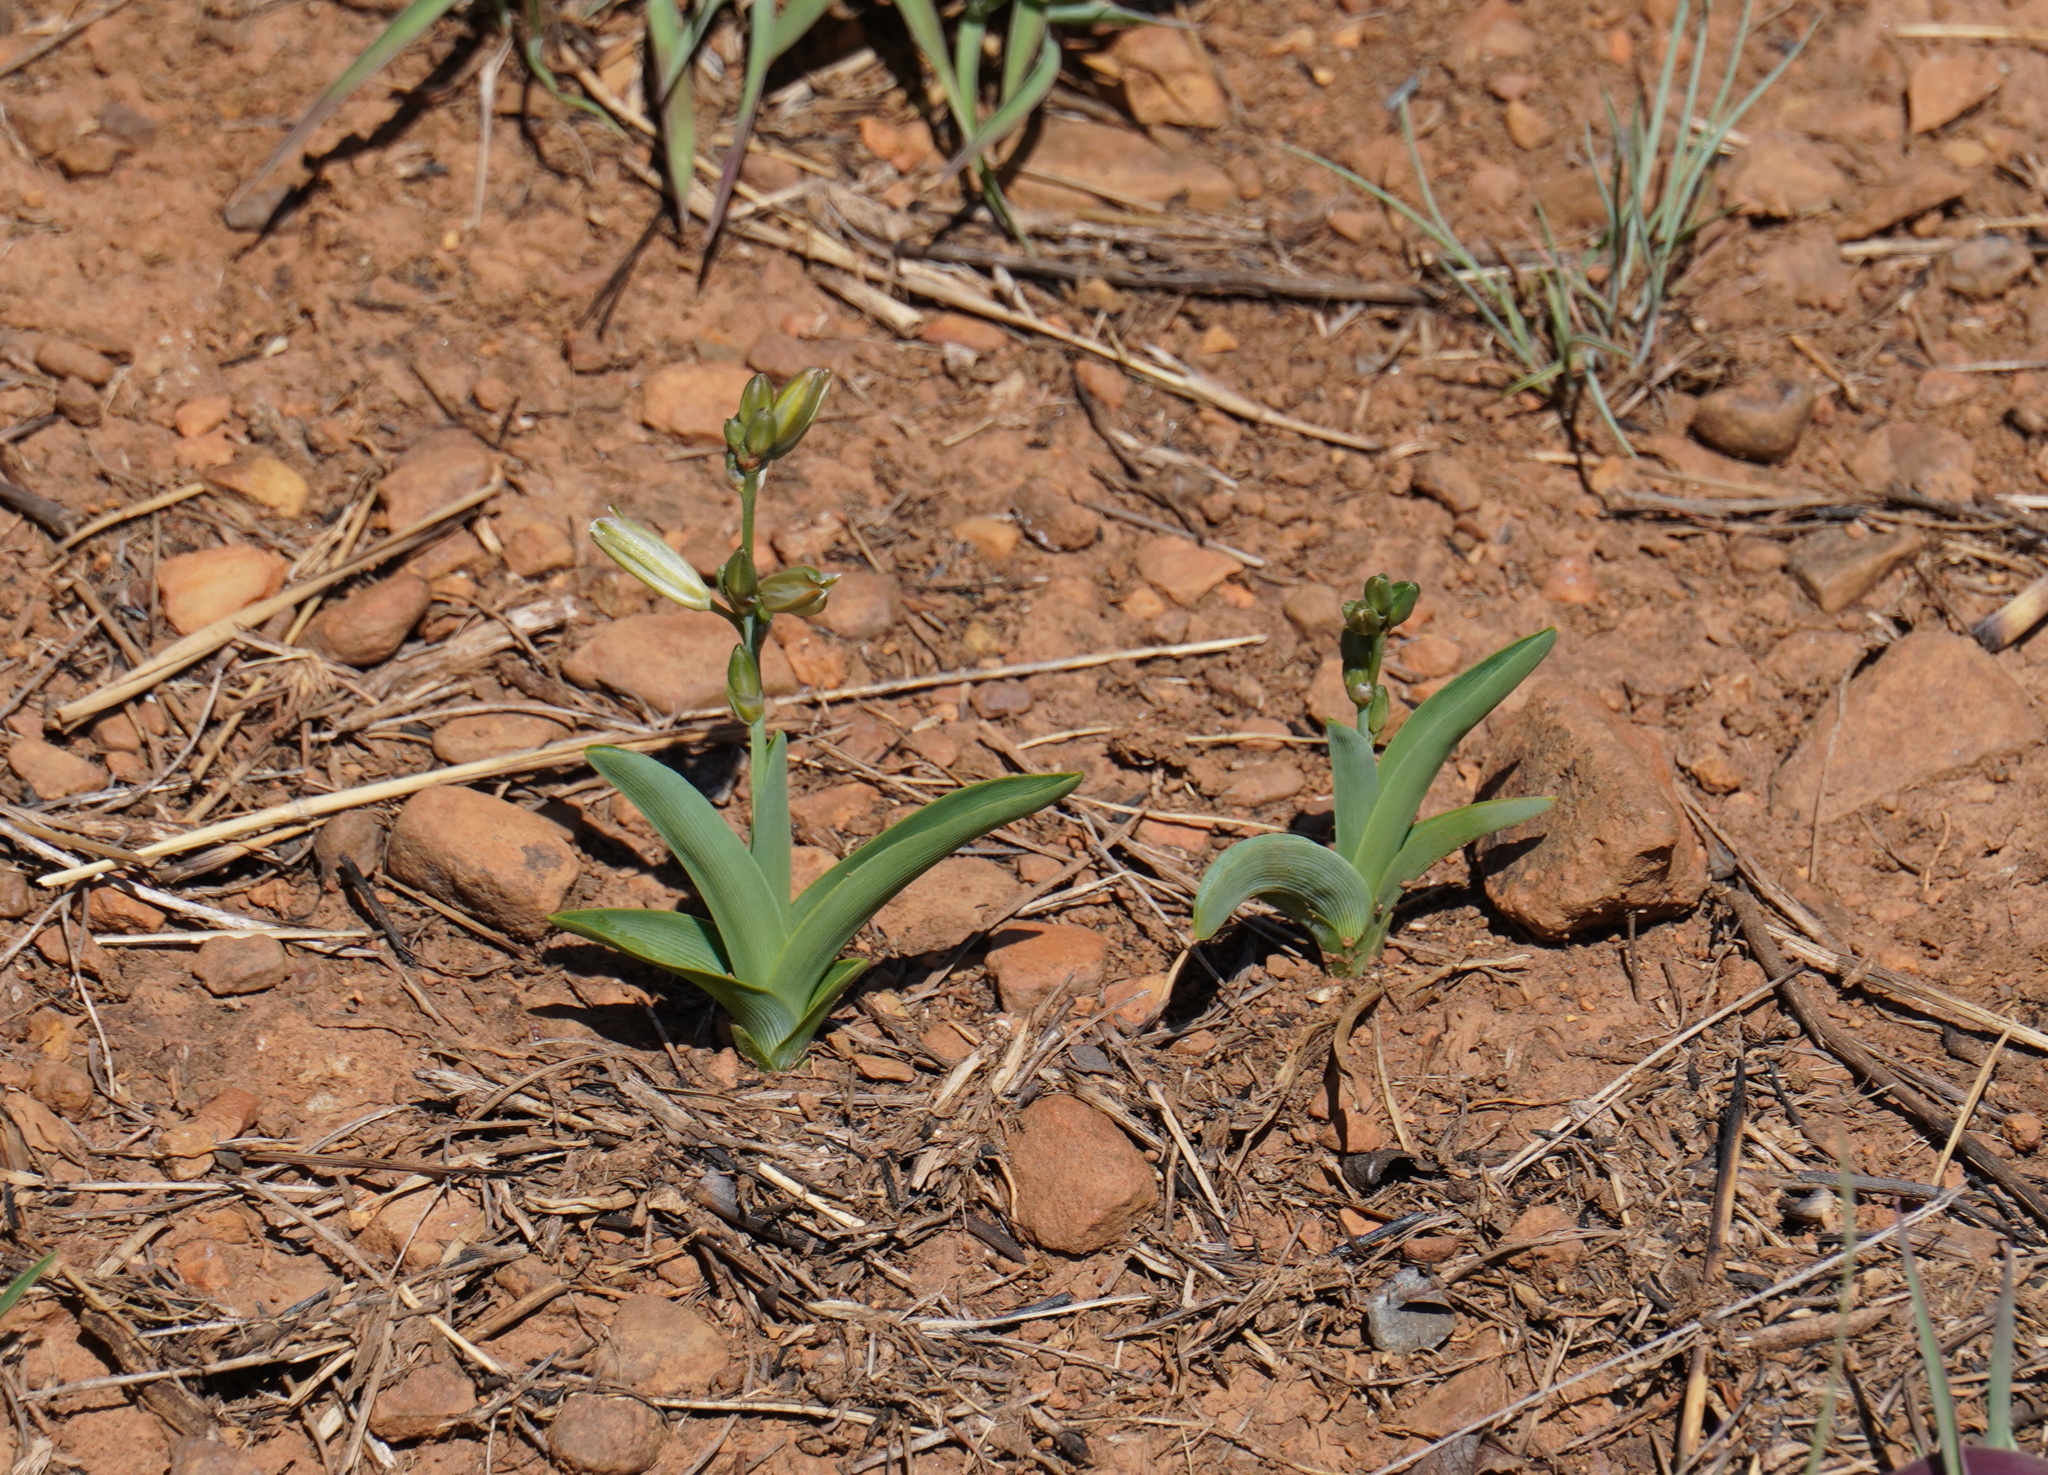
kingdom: Plantae
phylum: Tracheophyta
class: Liliopsida
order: Asparagales
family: Asparagaceae
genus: Chlorophytum
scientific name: Chlorophytum trichophlebium
